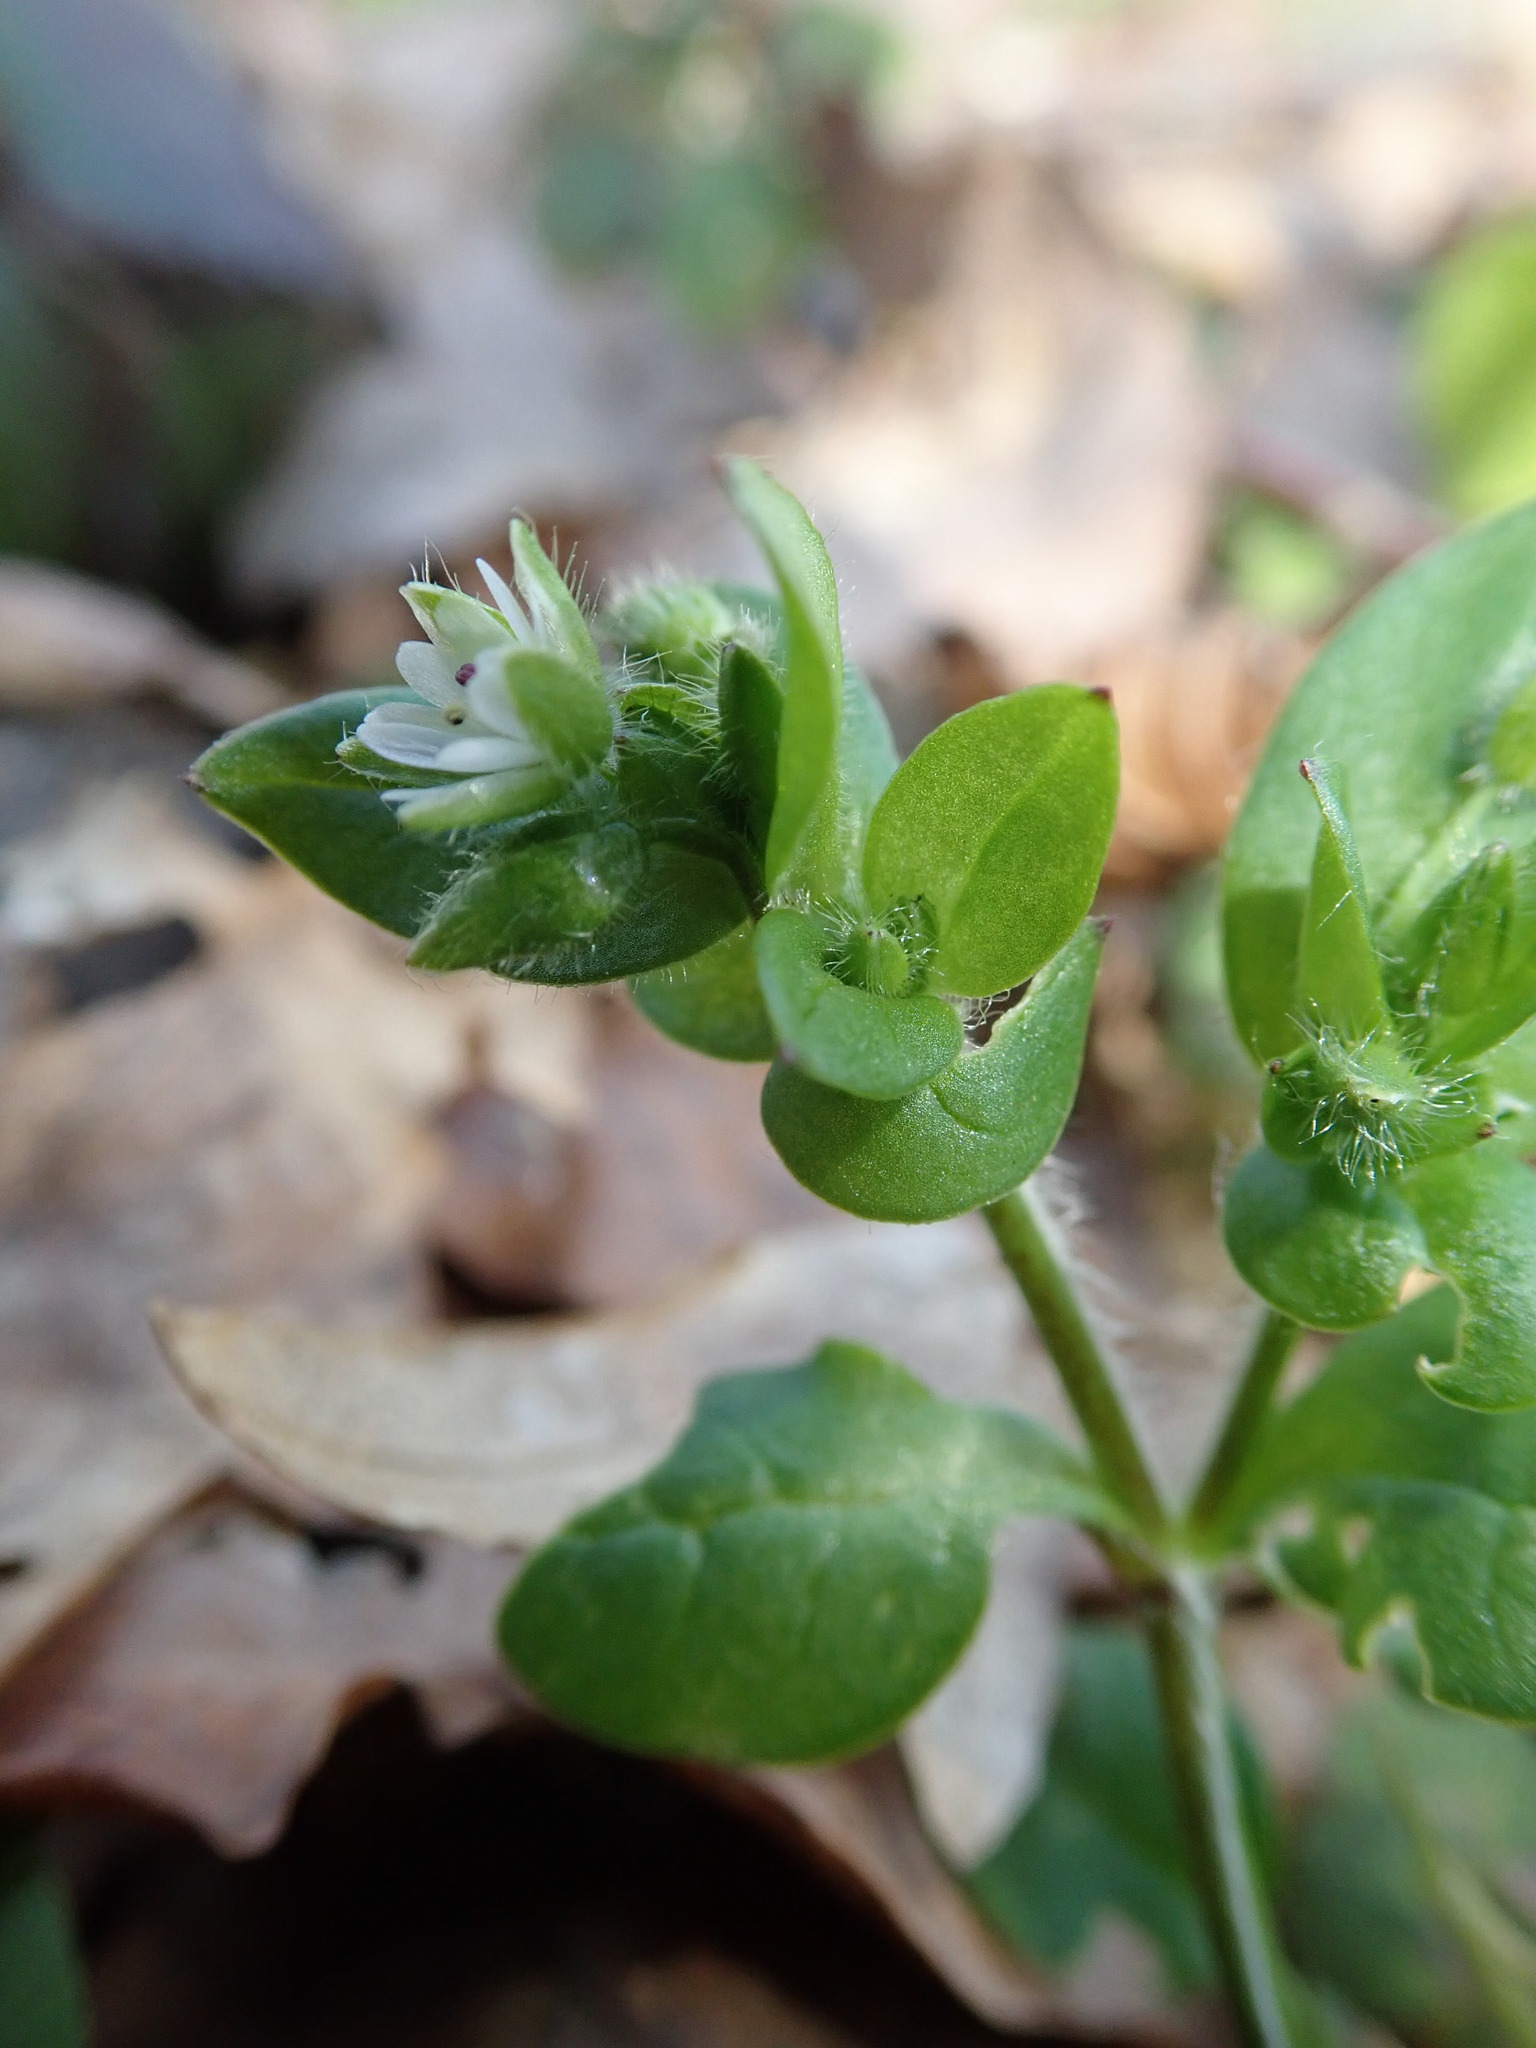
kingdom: Plantae
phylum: Tracheophyta
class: Magnoliopsida
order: Caryophyllales
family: Caryophyllaceae
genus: Stellaria
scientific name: Stellaria media
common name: Common chickweed
